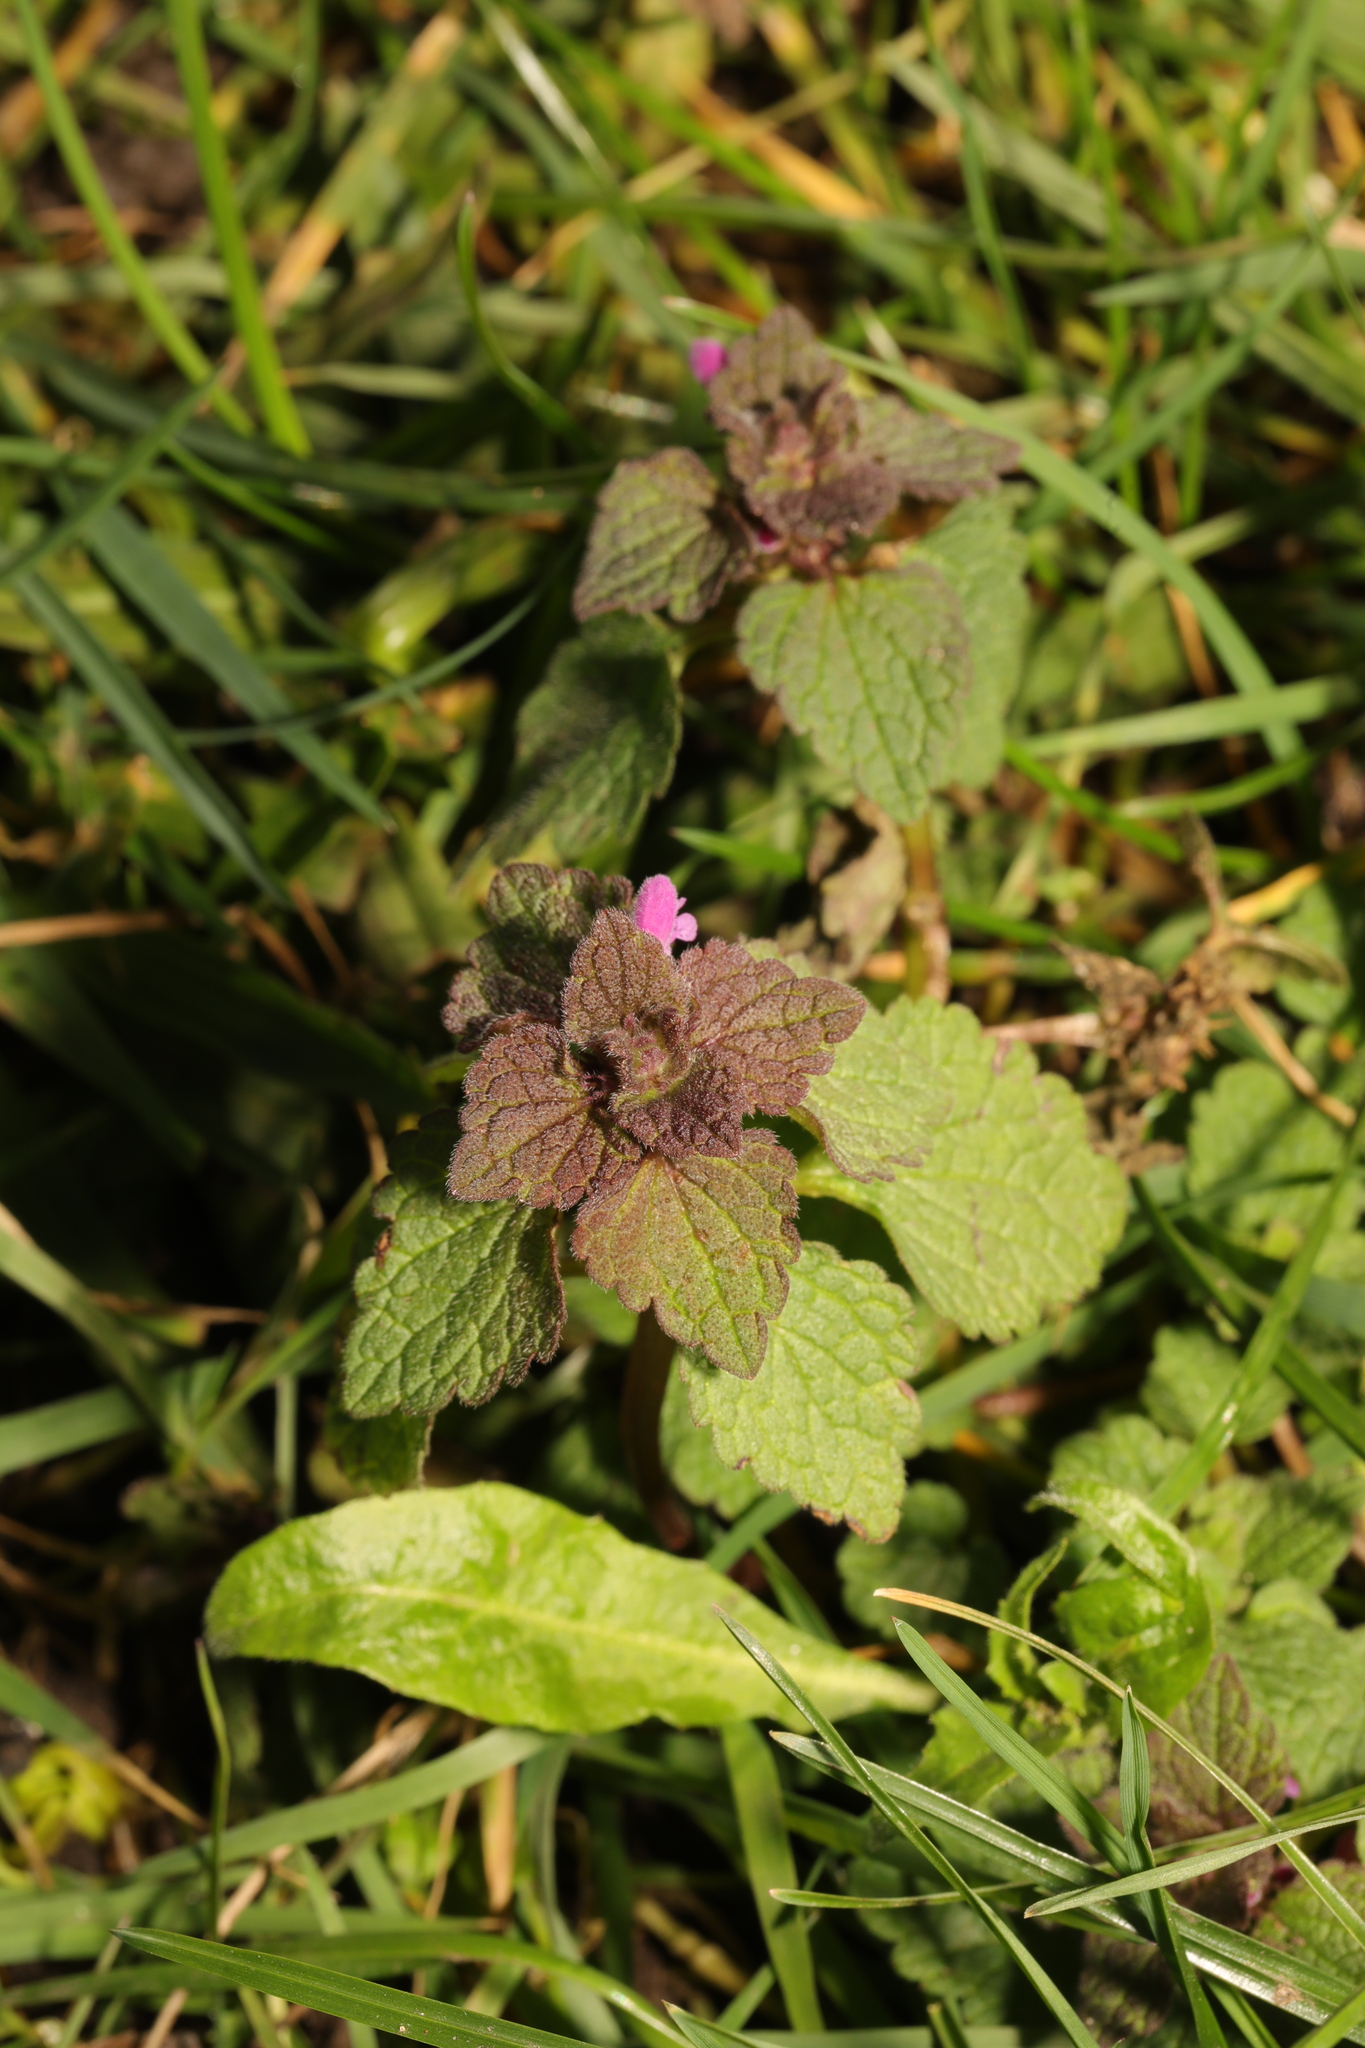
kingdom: Plantae
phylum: Tracheophyta
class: Magnoliopsida
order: Lamiales
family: Lamiaceae
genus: Lamium
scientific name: Lamium purpureum
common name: Red dead-nettle
